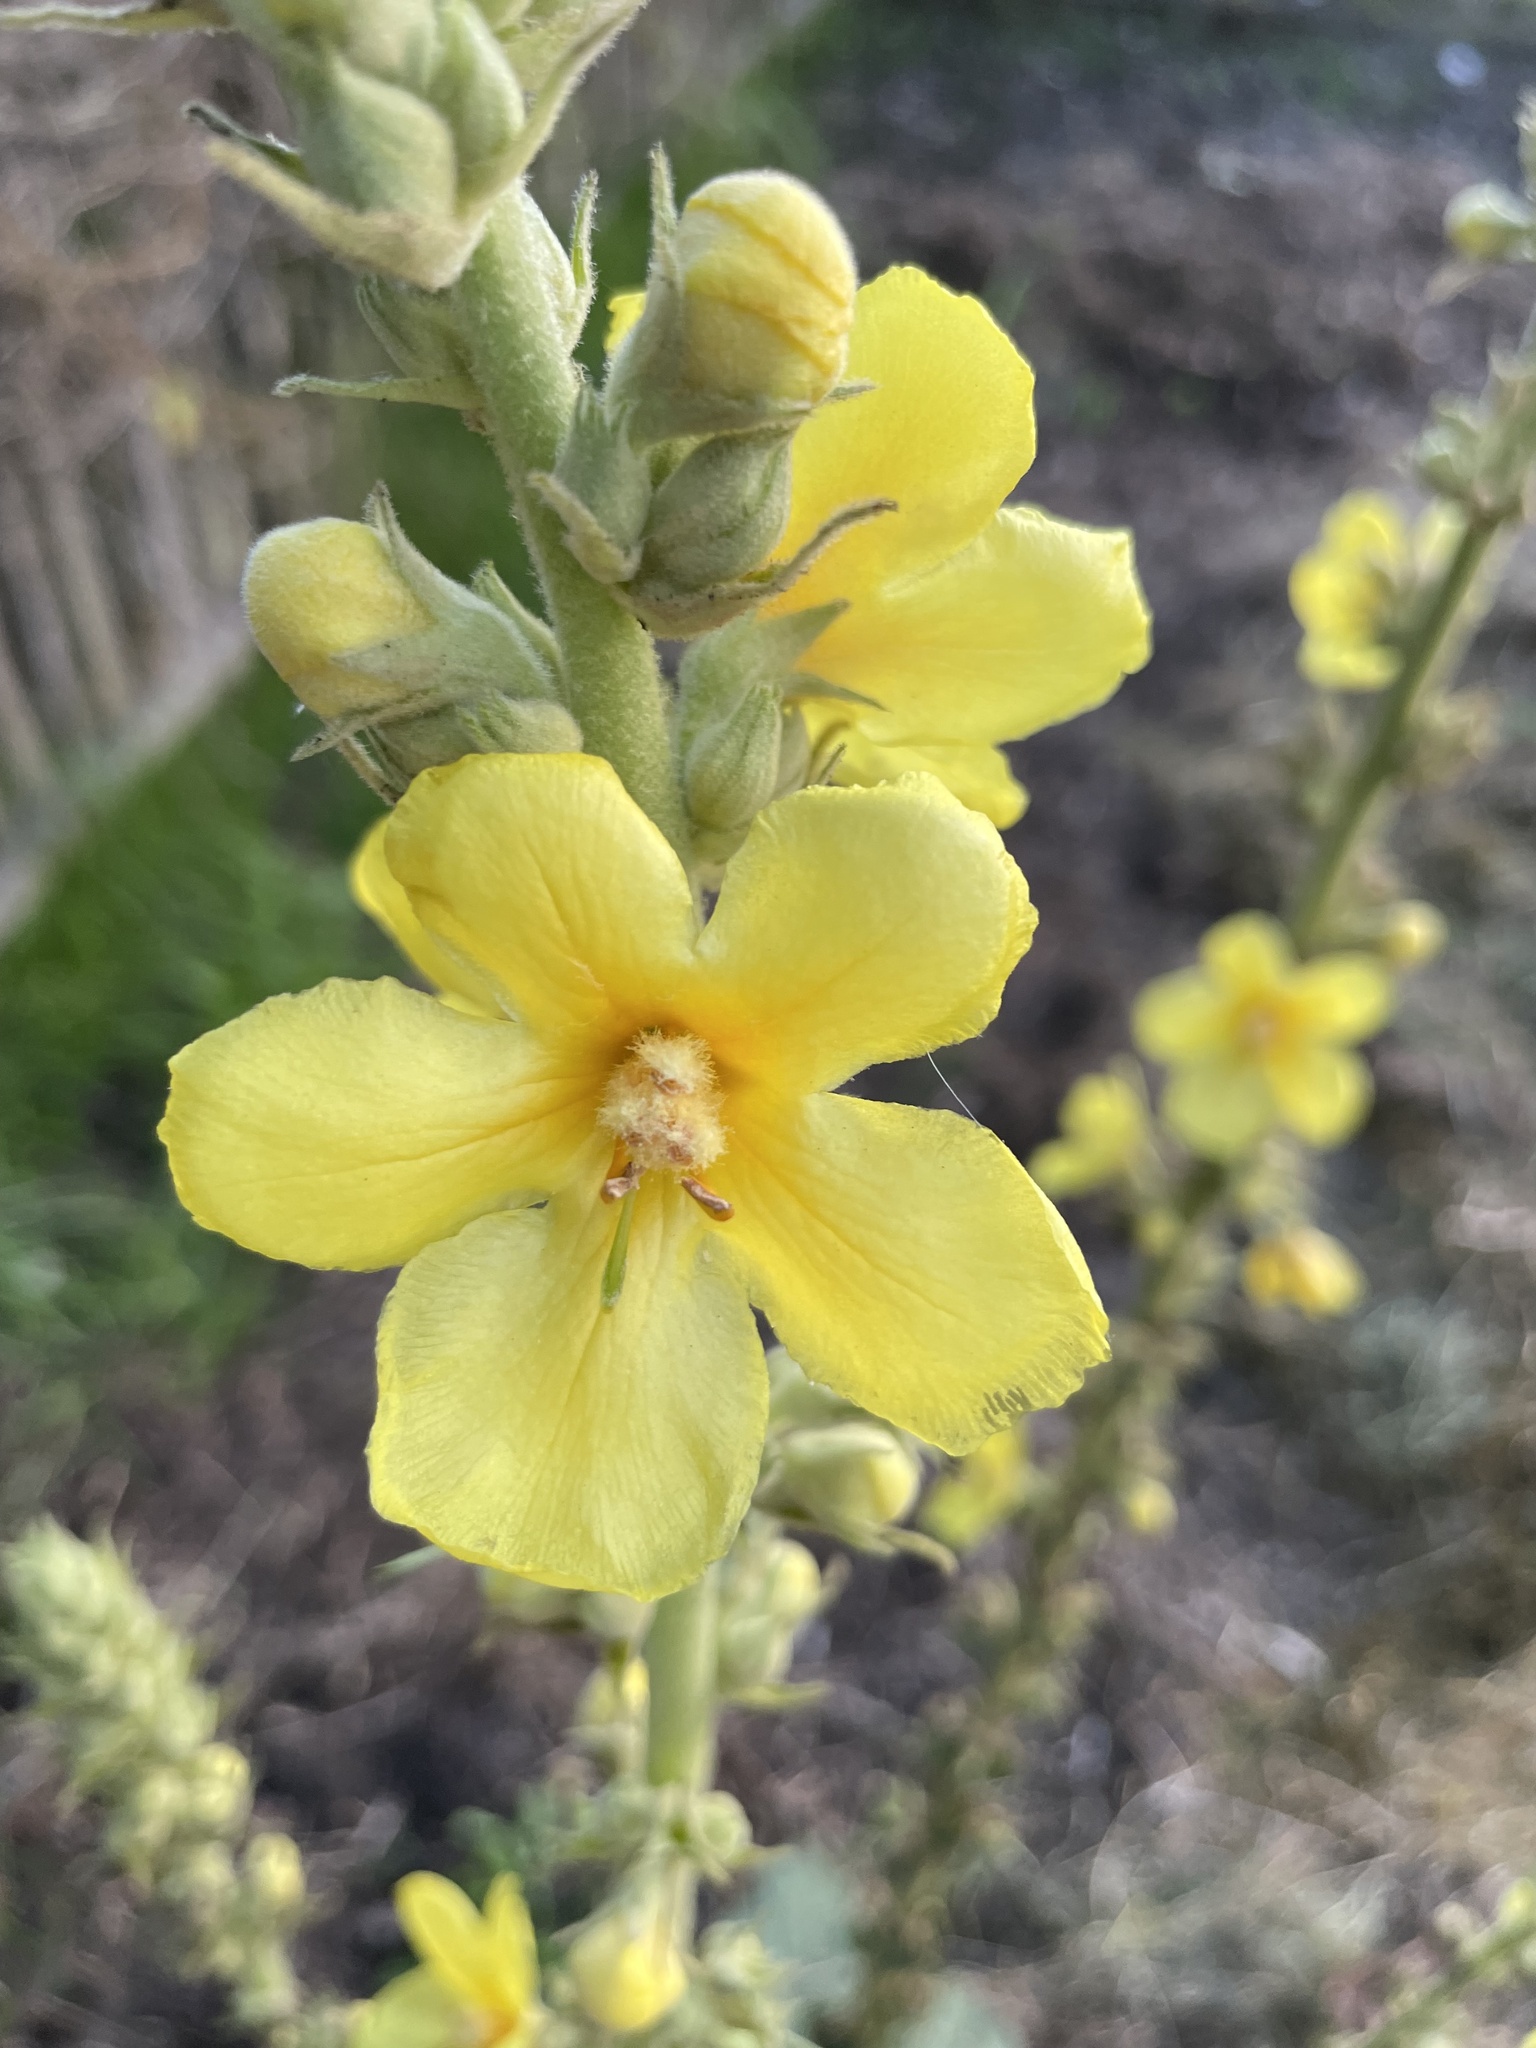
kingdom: Plantae
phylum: Tracheophyta
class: Magnoliopsida
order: Lamiales
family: Scrophulariaceae
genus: Verbascum
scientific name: Verbascum phlomoides
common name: Orange mullein
